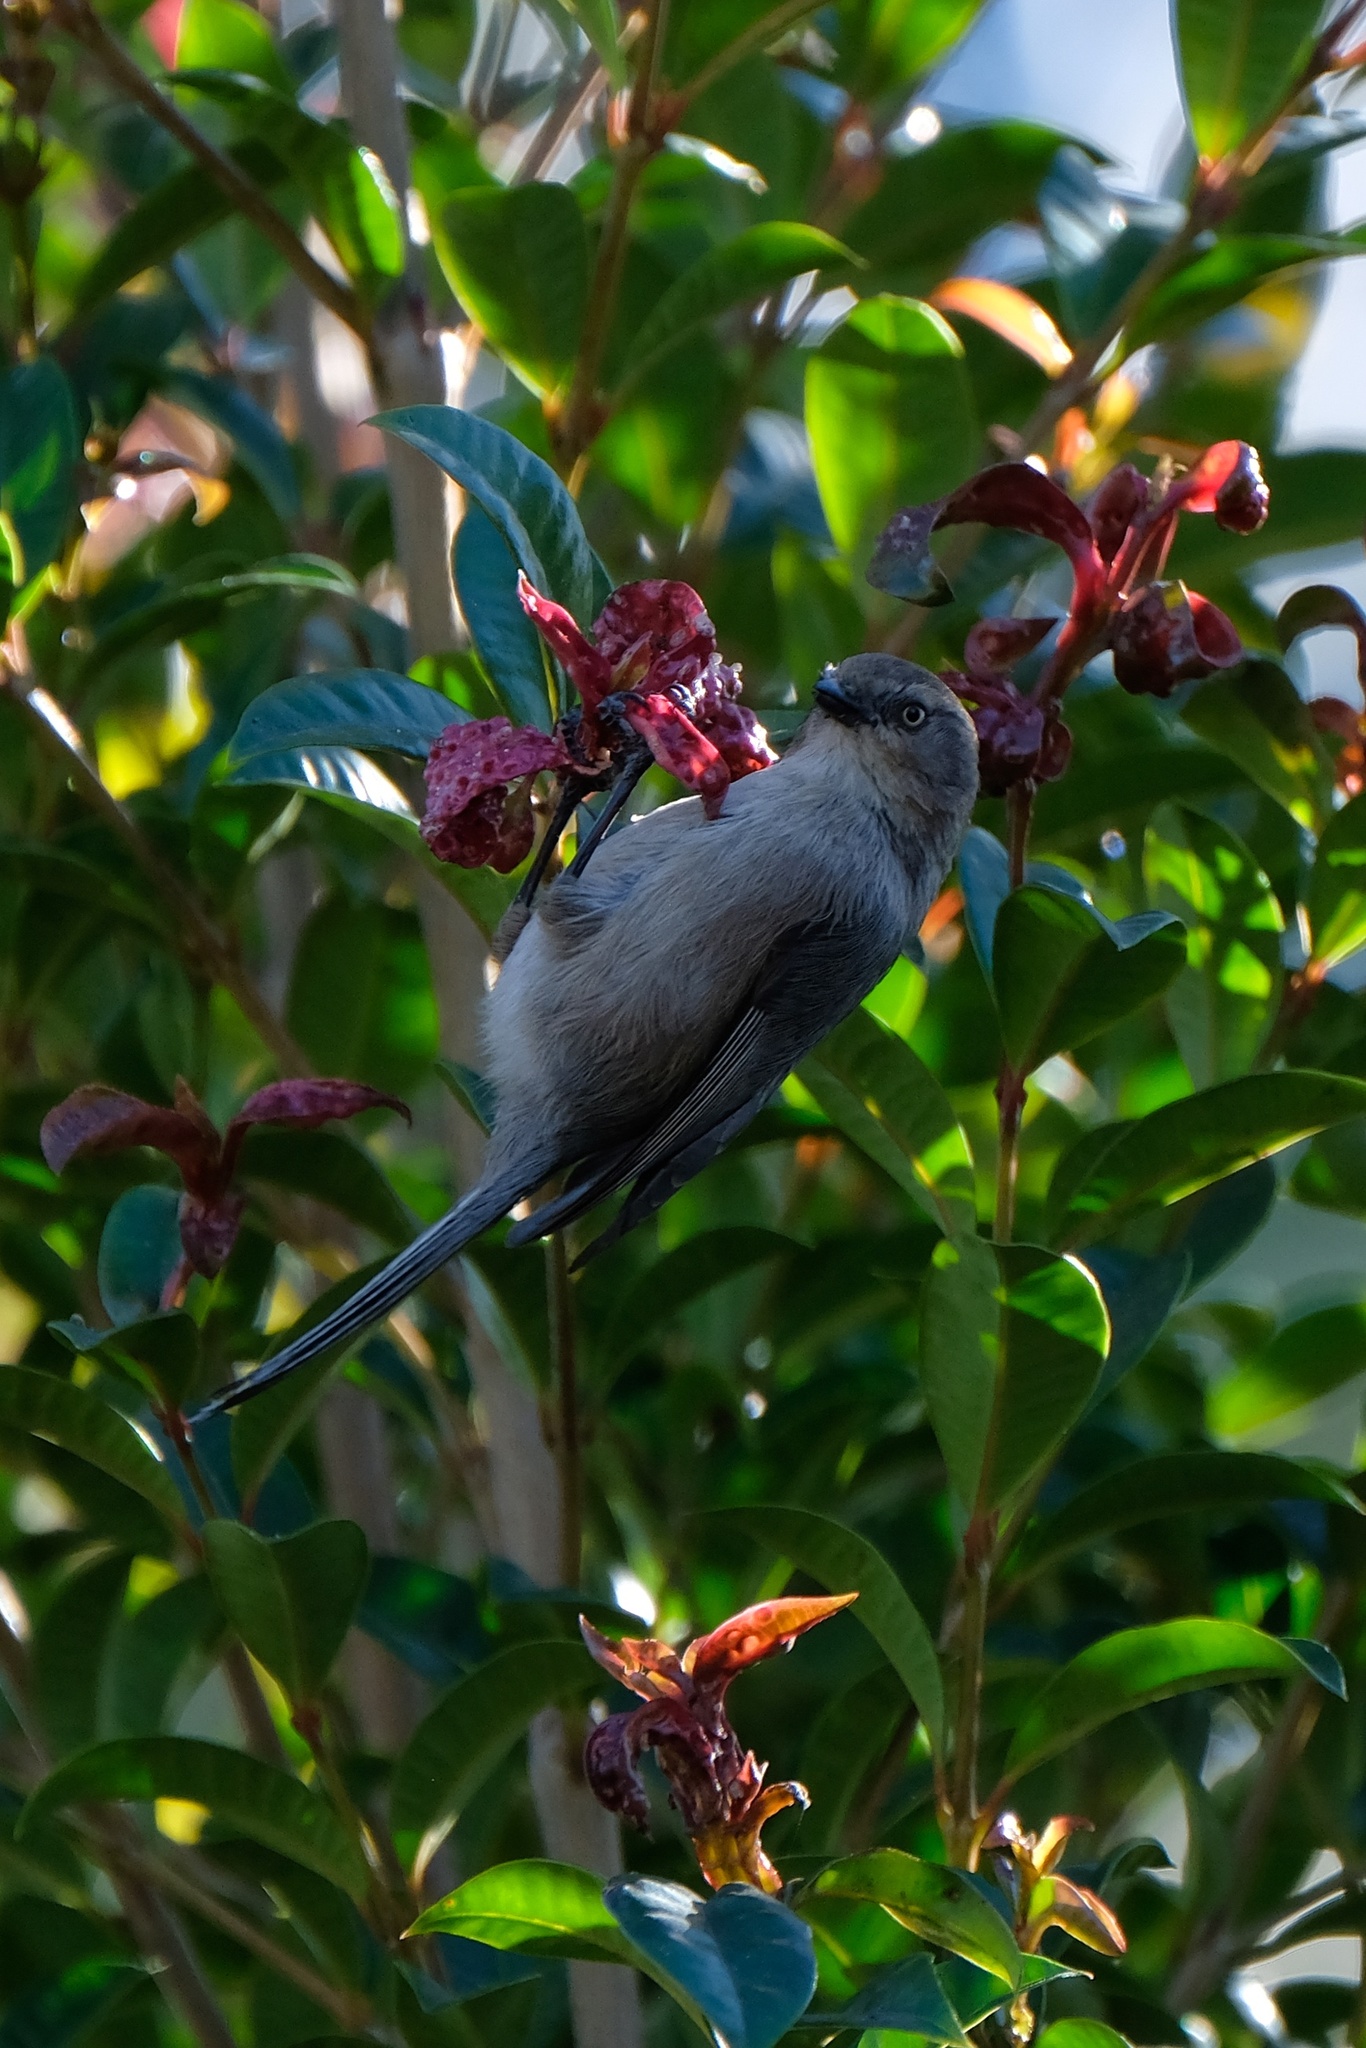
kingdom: Animalia
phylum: Chordata
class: Aves
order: Passeriformes
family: Aegithalidae
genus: Psaltriparus
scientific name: Psaltriparus minimus
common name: American bushtit
